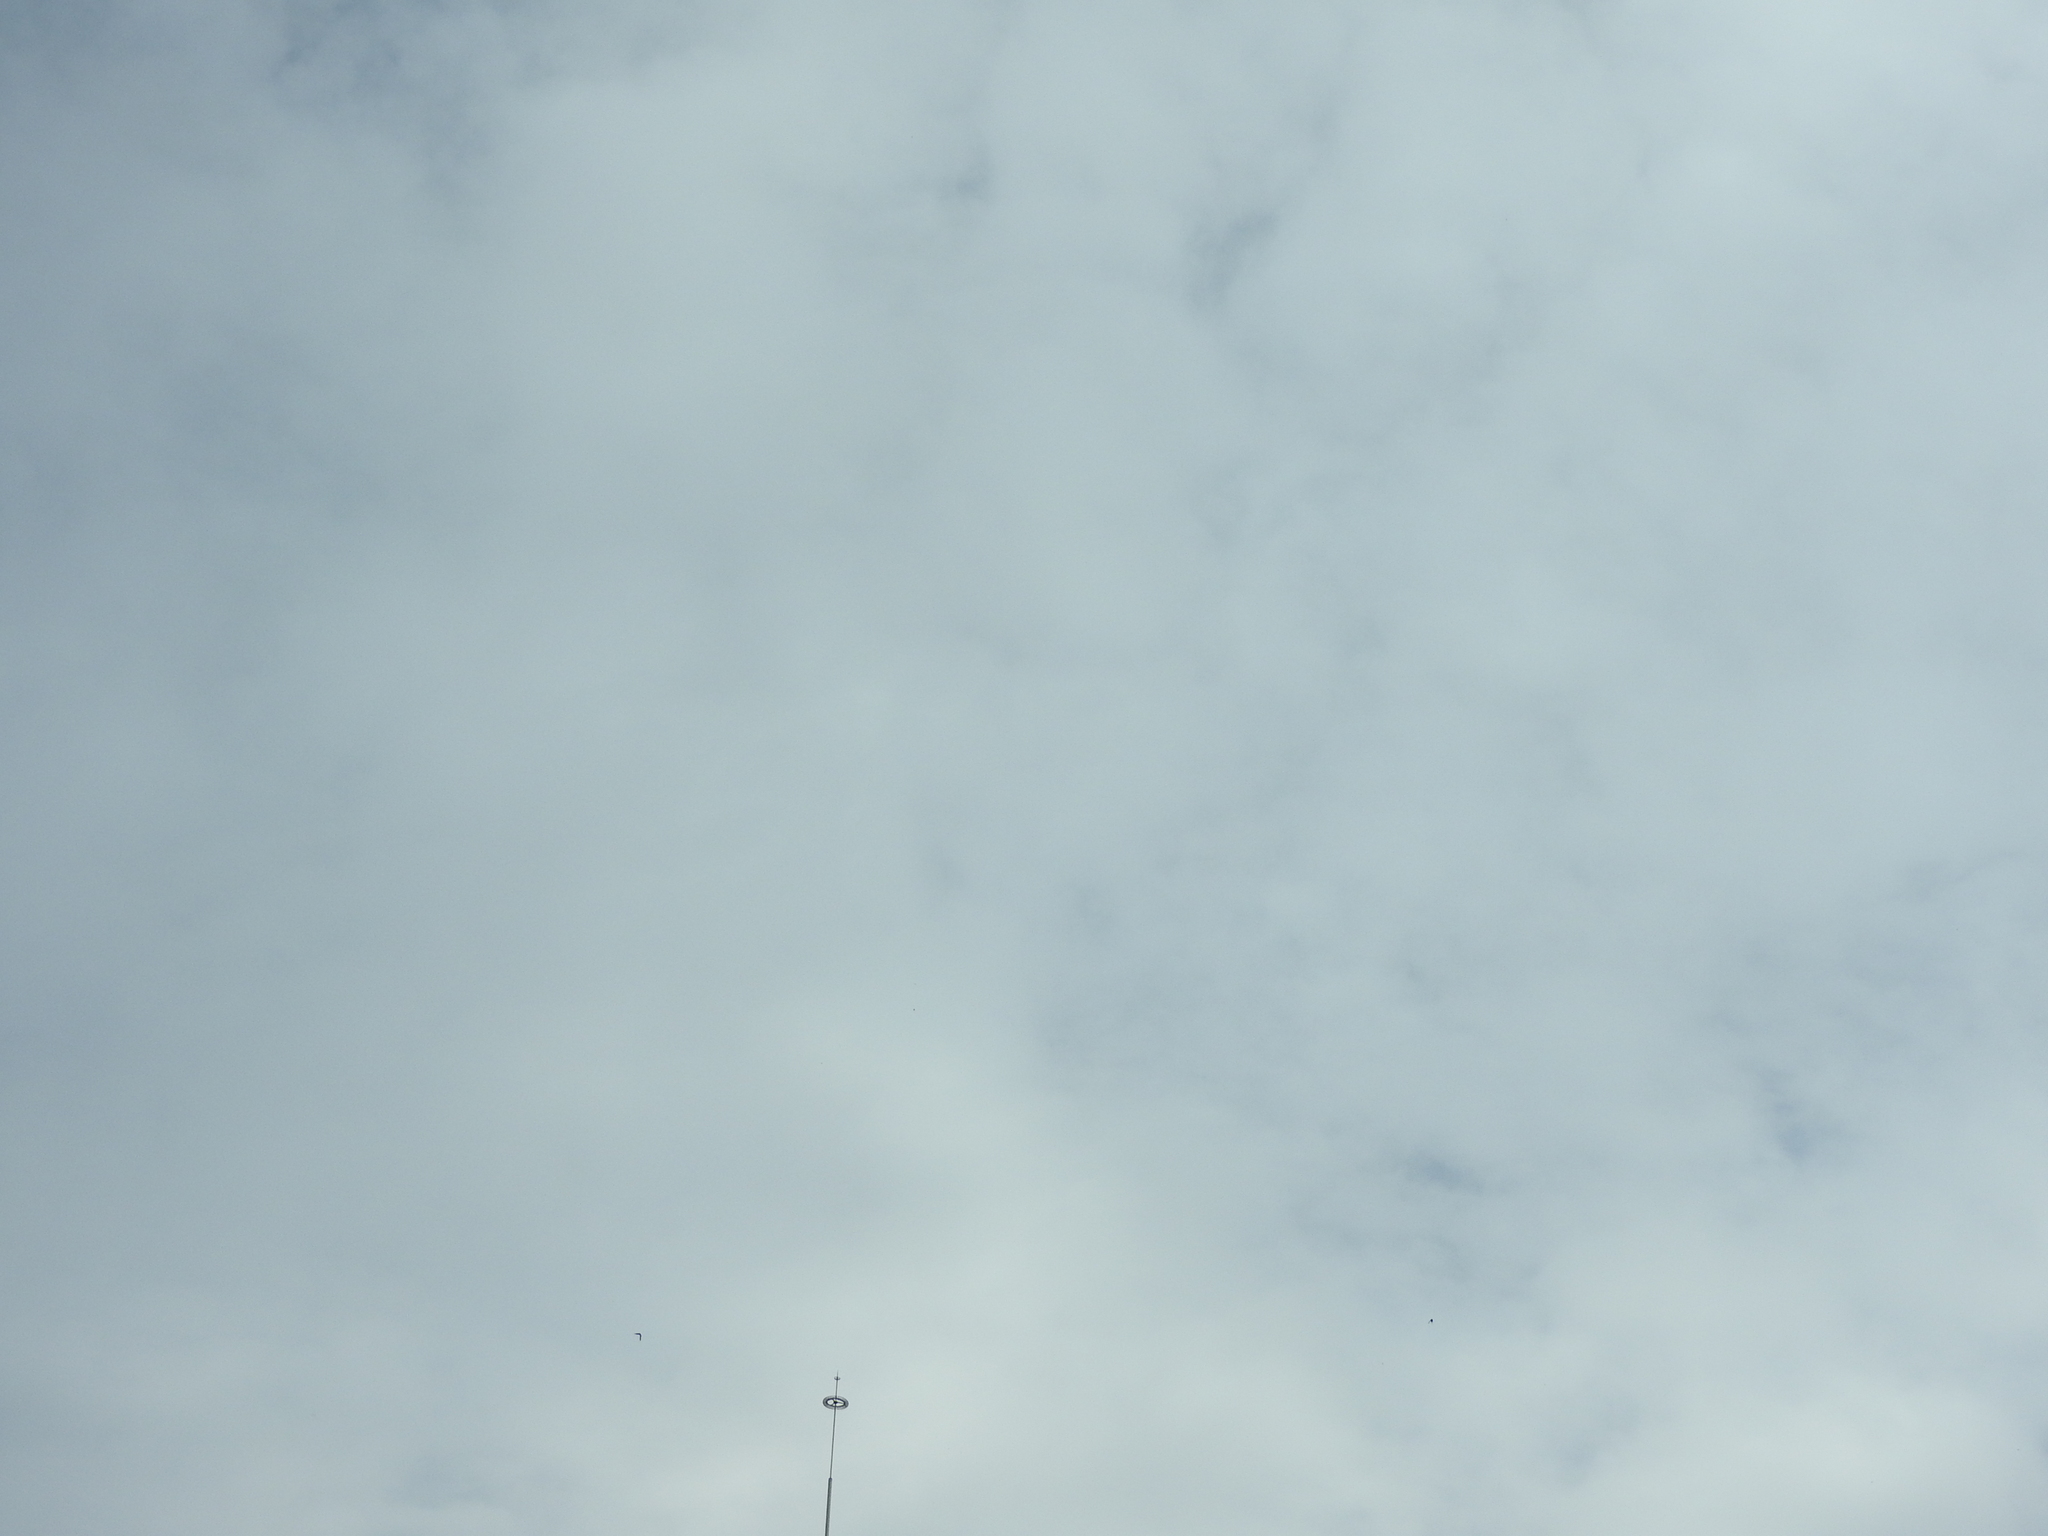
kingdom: Animalia
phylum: Arthropoda
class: Insecta
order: Lepidoptera
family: Nymphalidae
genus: Danaus
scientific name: Danaus plexippus
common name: Monarch
